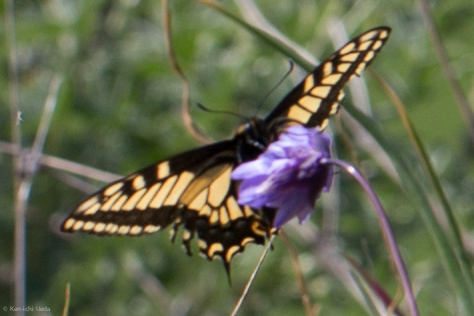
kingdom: Animalia
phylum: Arthropoda
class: Insecta
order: Lepidoptera
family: Papilionidae
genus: Papilio
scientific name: Papilio zelicaon
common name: Anise swallowtail
